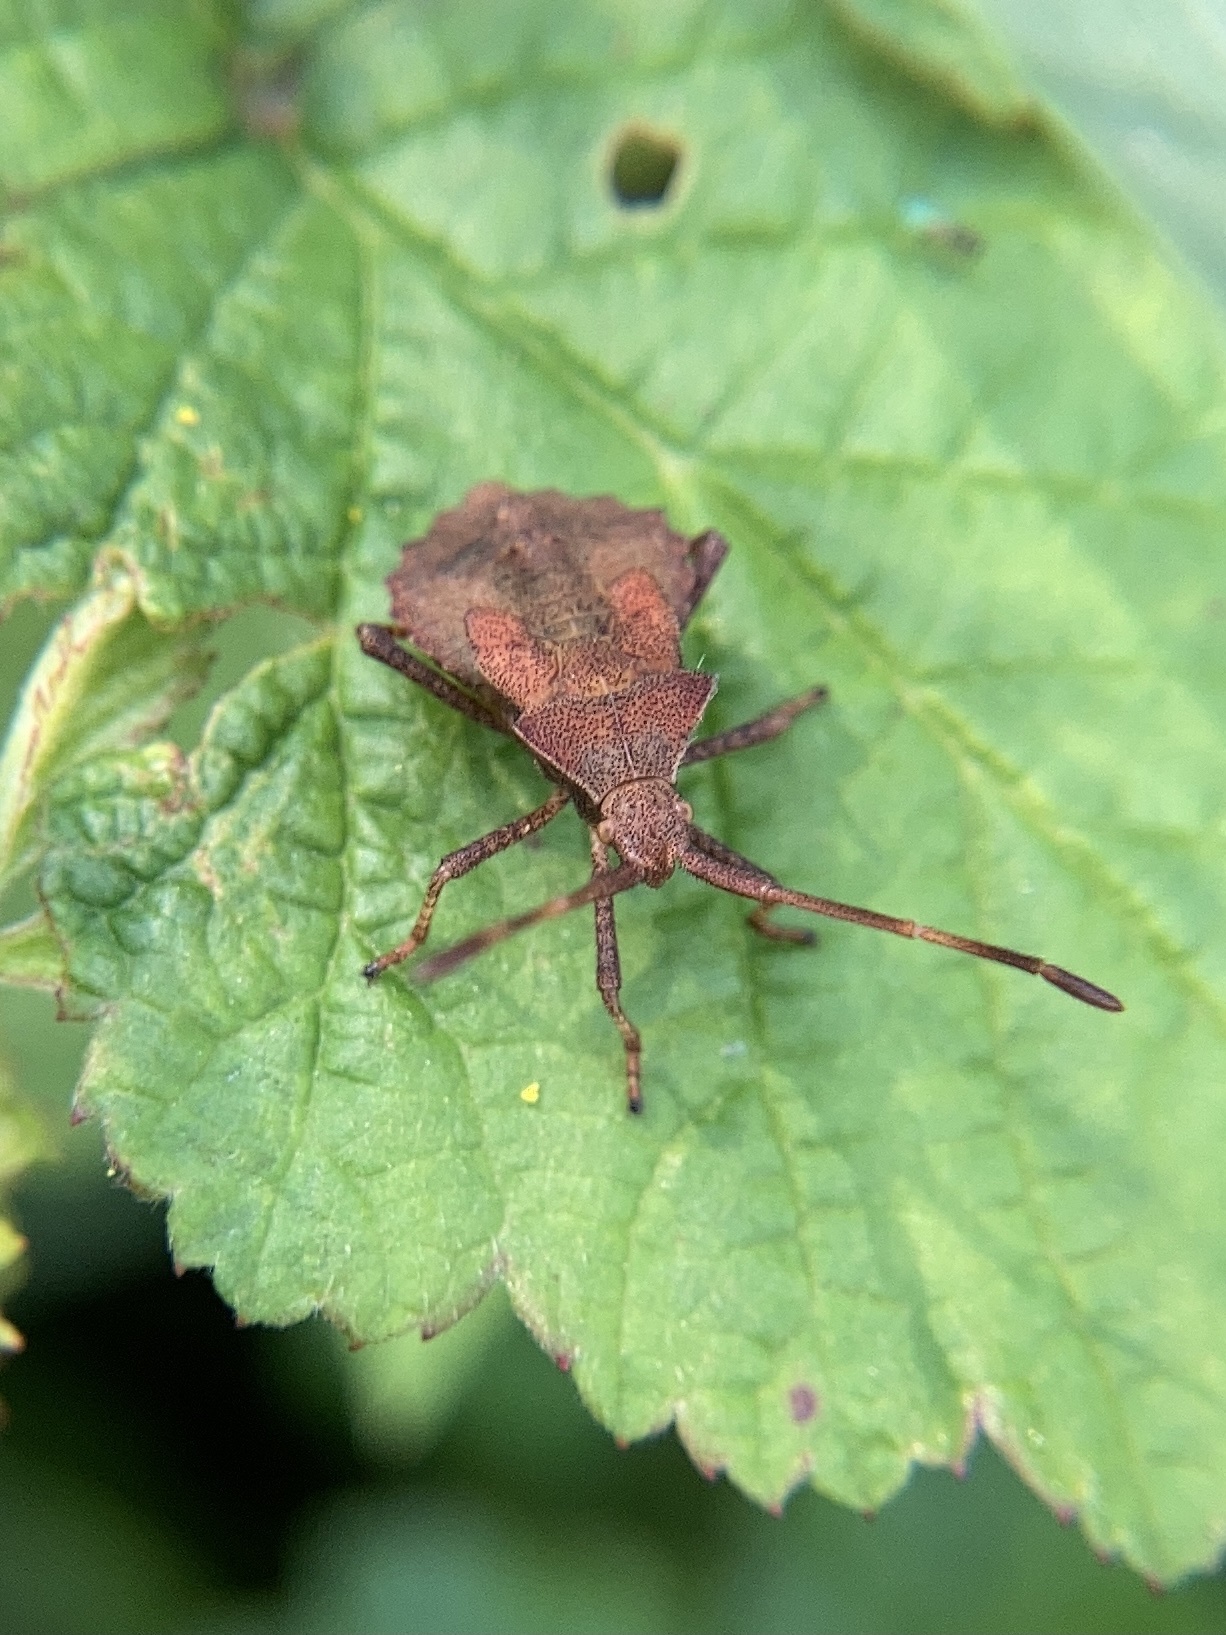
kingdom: Animalia
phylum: Arthropoda
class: Insecta
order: Hemiptera
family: Coreidae
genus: Coreus
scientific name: Coreus marginatus
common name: Dock bug
